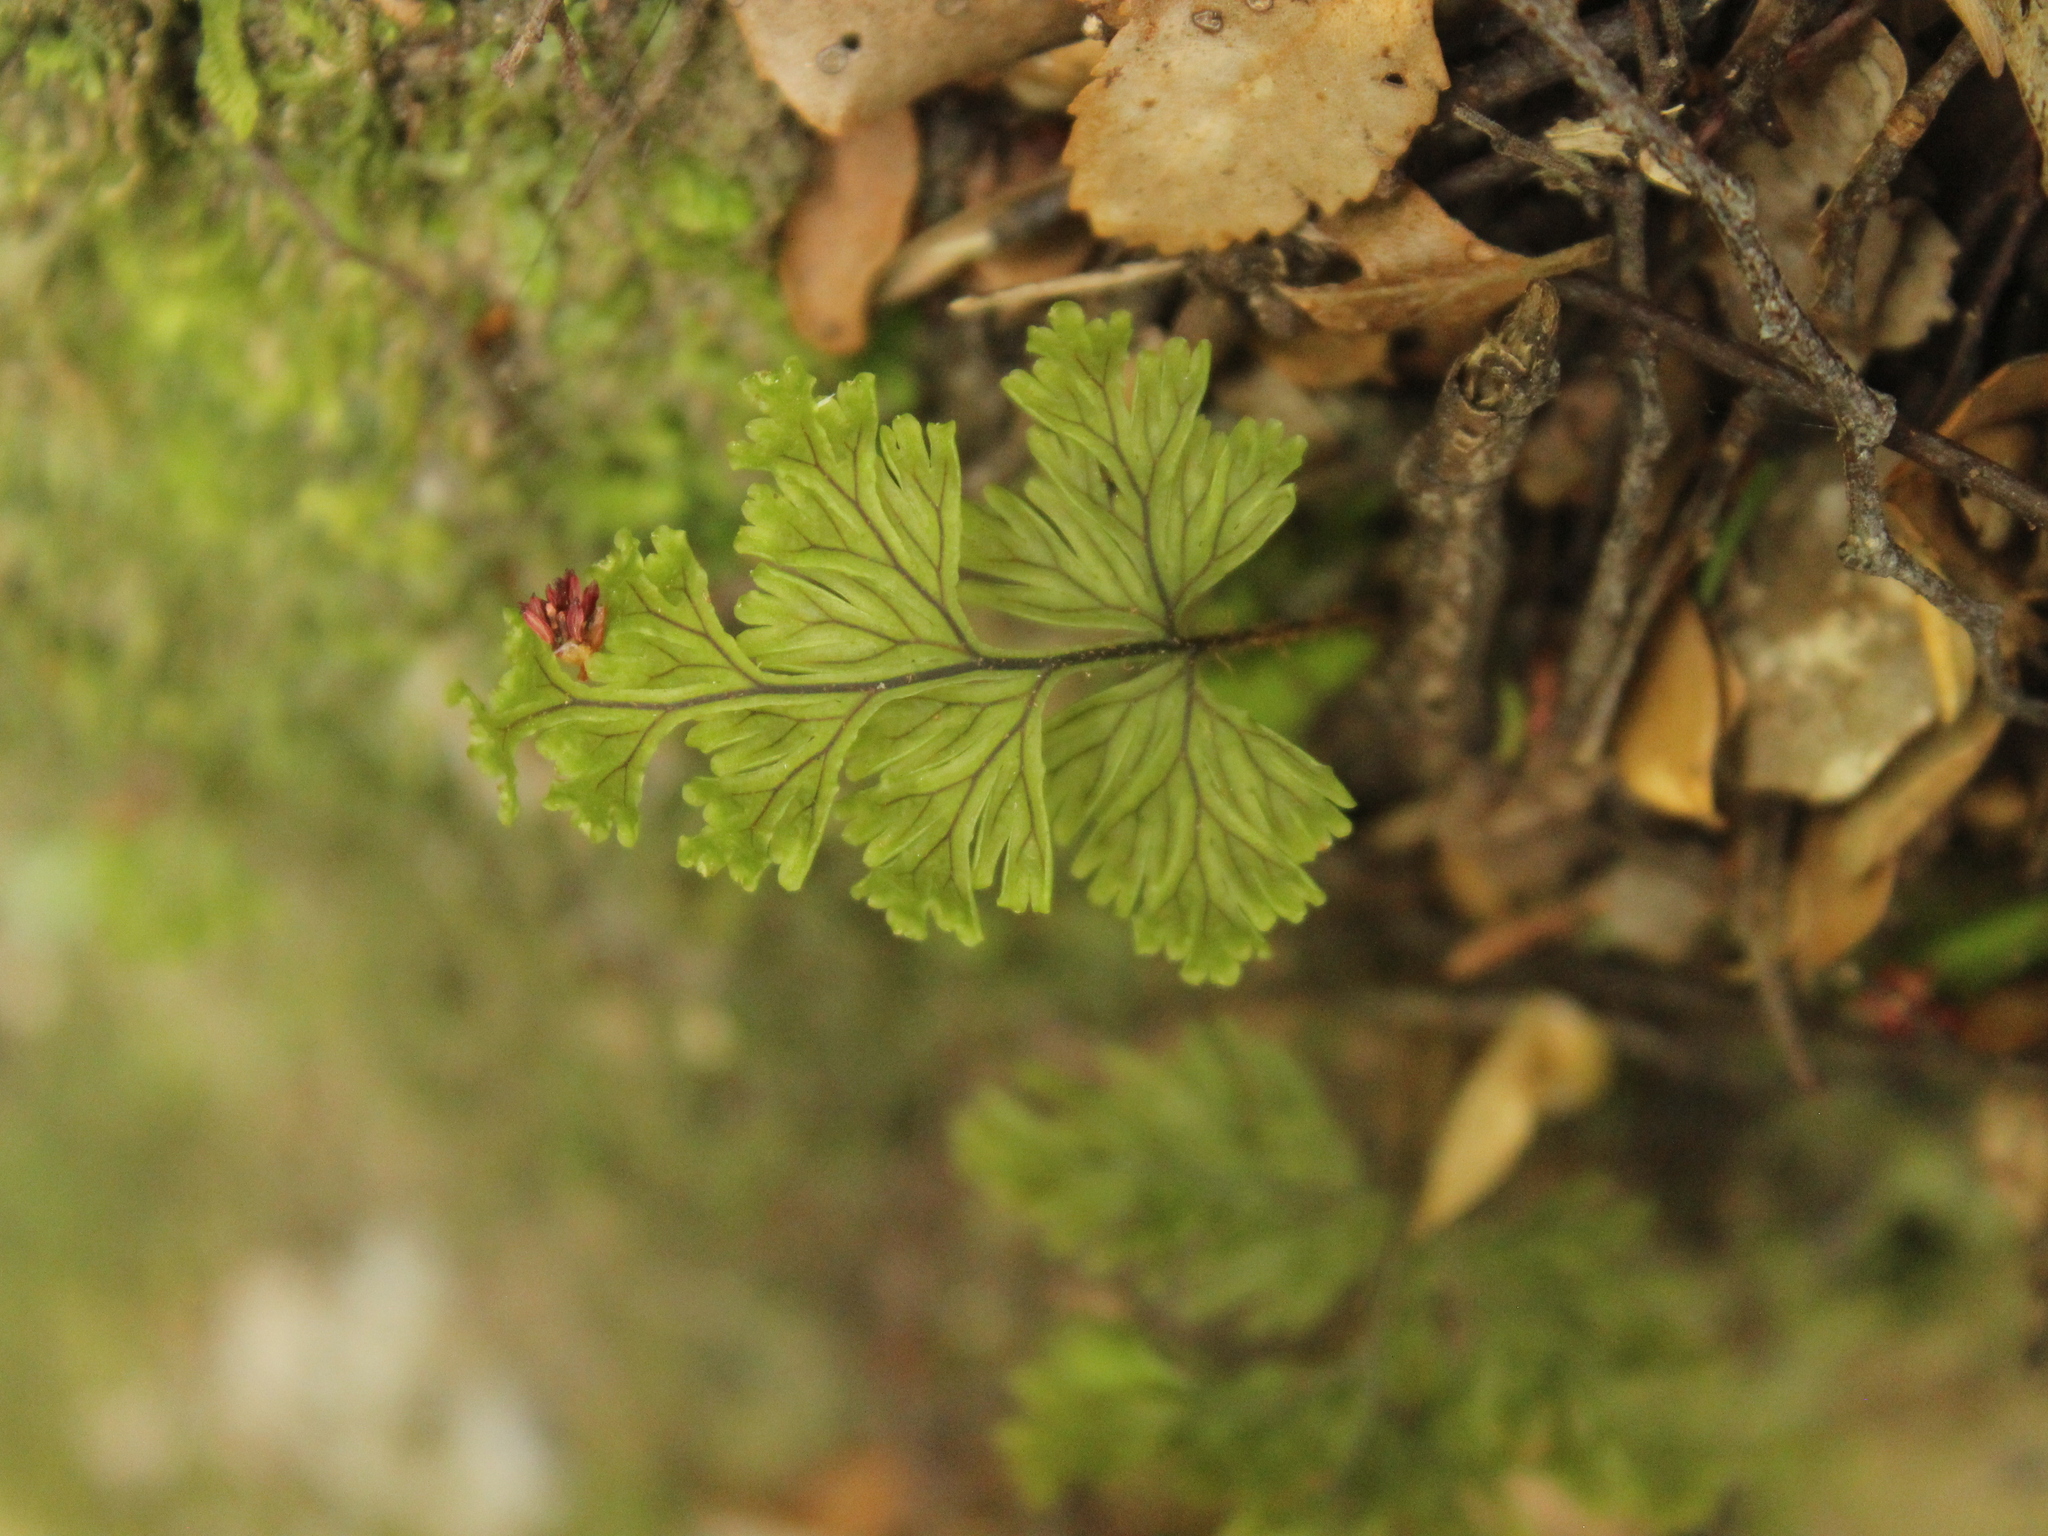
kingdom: Plantae
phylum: Tracheophyta
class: Polypodiopsida
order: Hymenophyllales
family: Hymenophyllaceae
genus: Hymenophyllum
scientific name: Hymenophyllum scabrum
